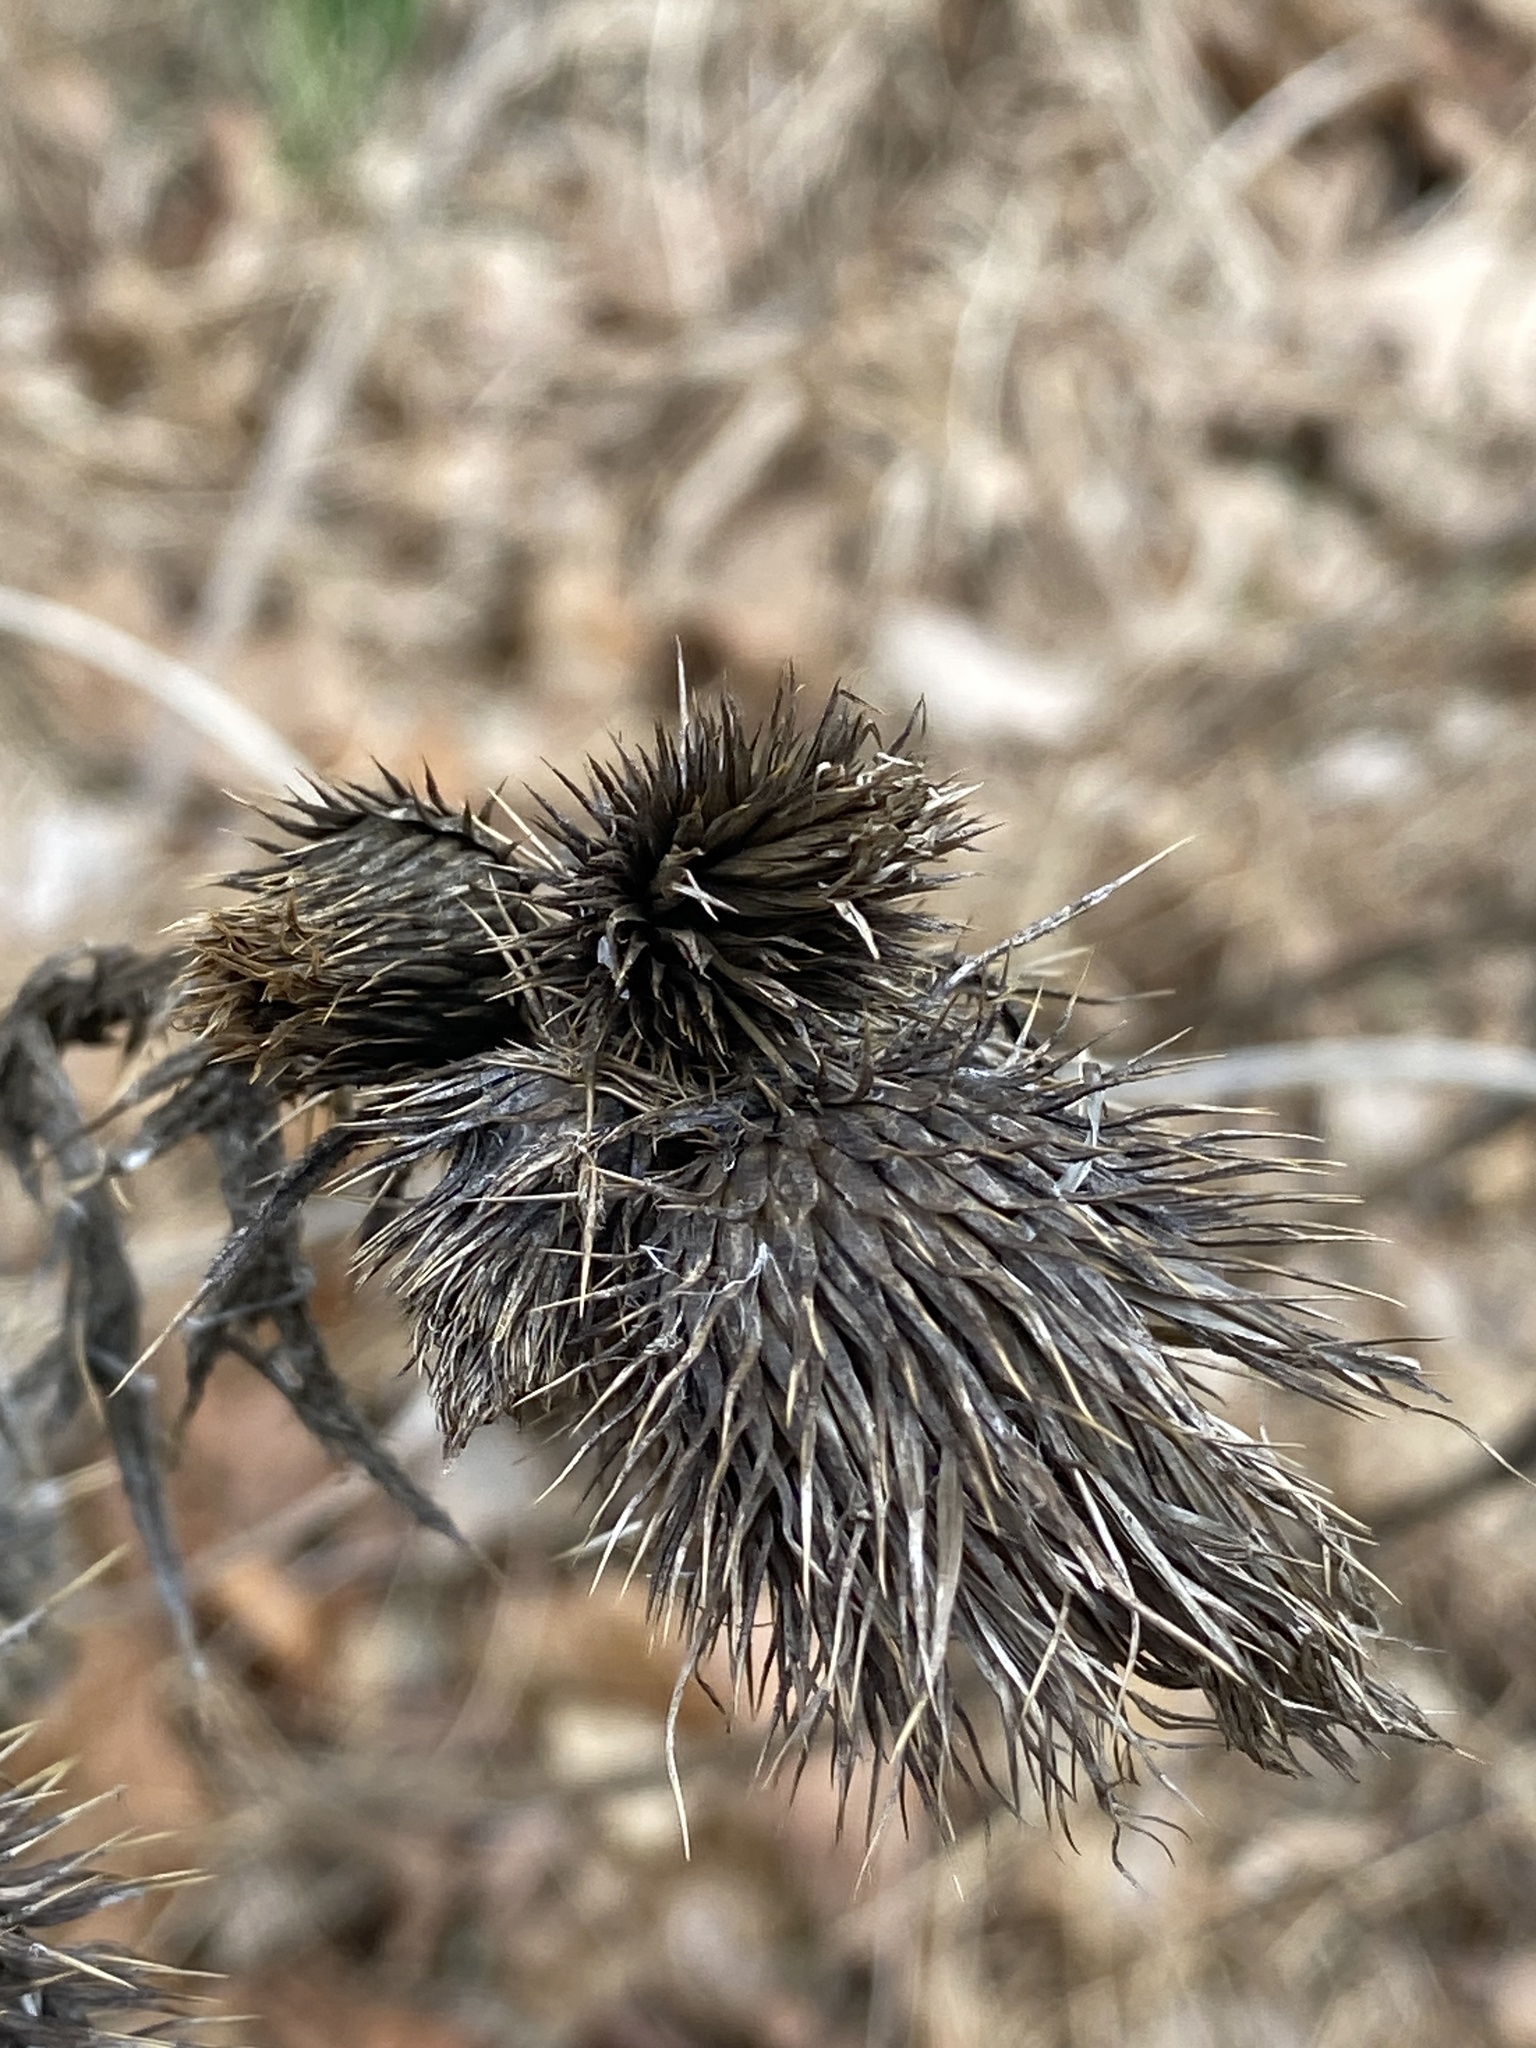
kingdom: Plantae
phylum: Tracheophyta
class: Magnoliopsida
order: Asterales
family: Asteraceae
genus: Cirsium
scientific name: Cirsium vulgare
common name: Bull thistle
